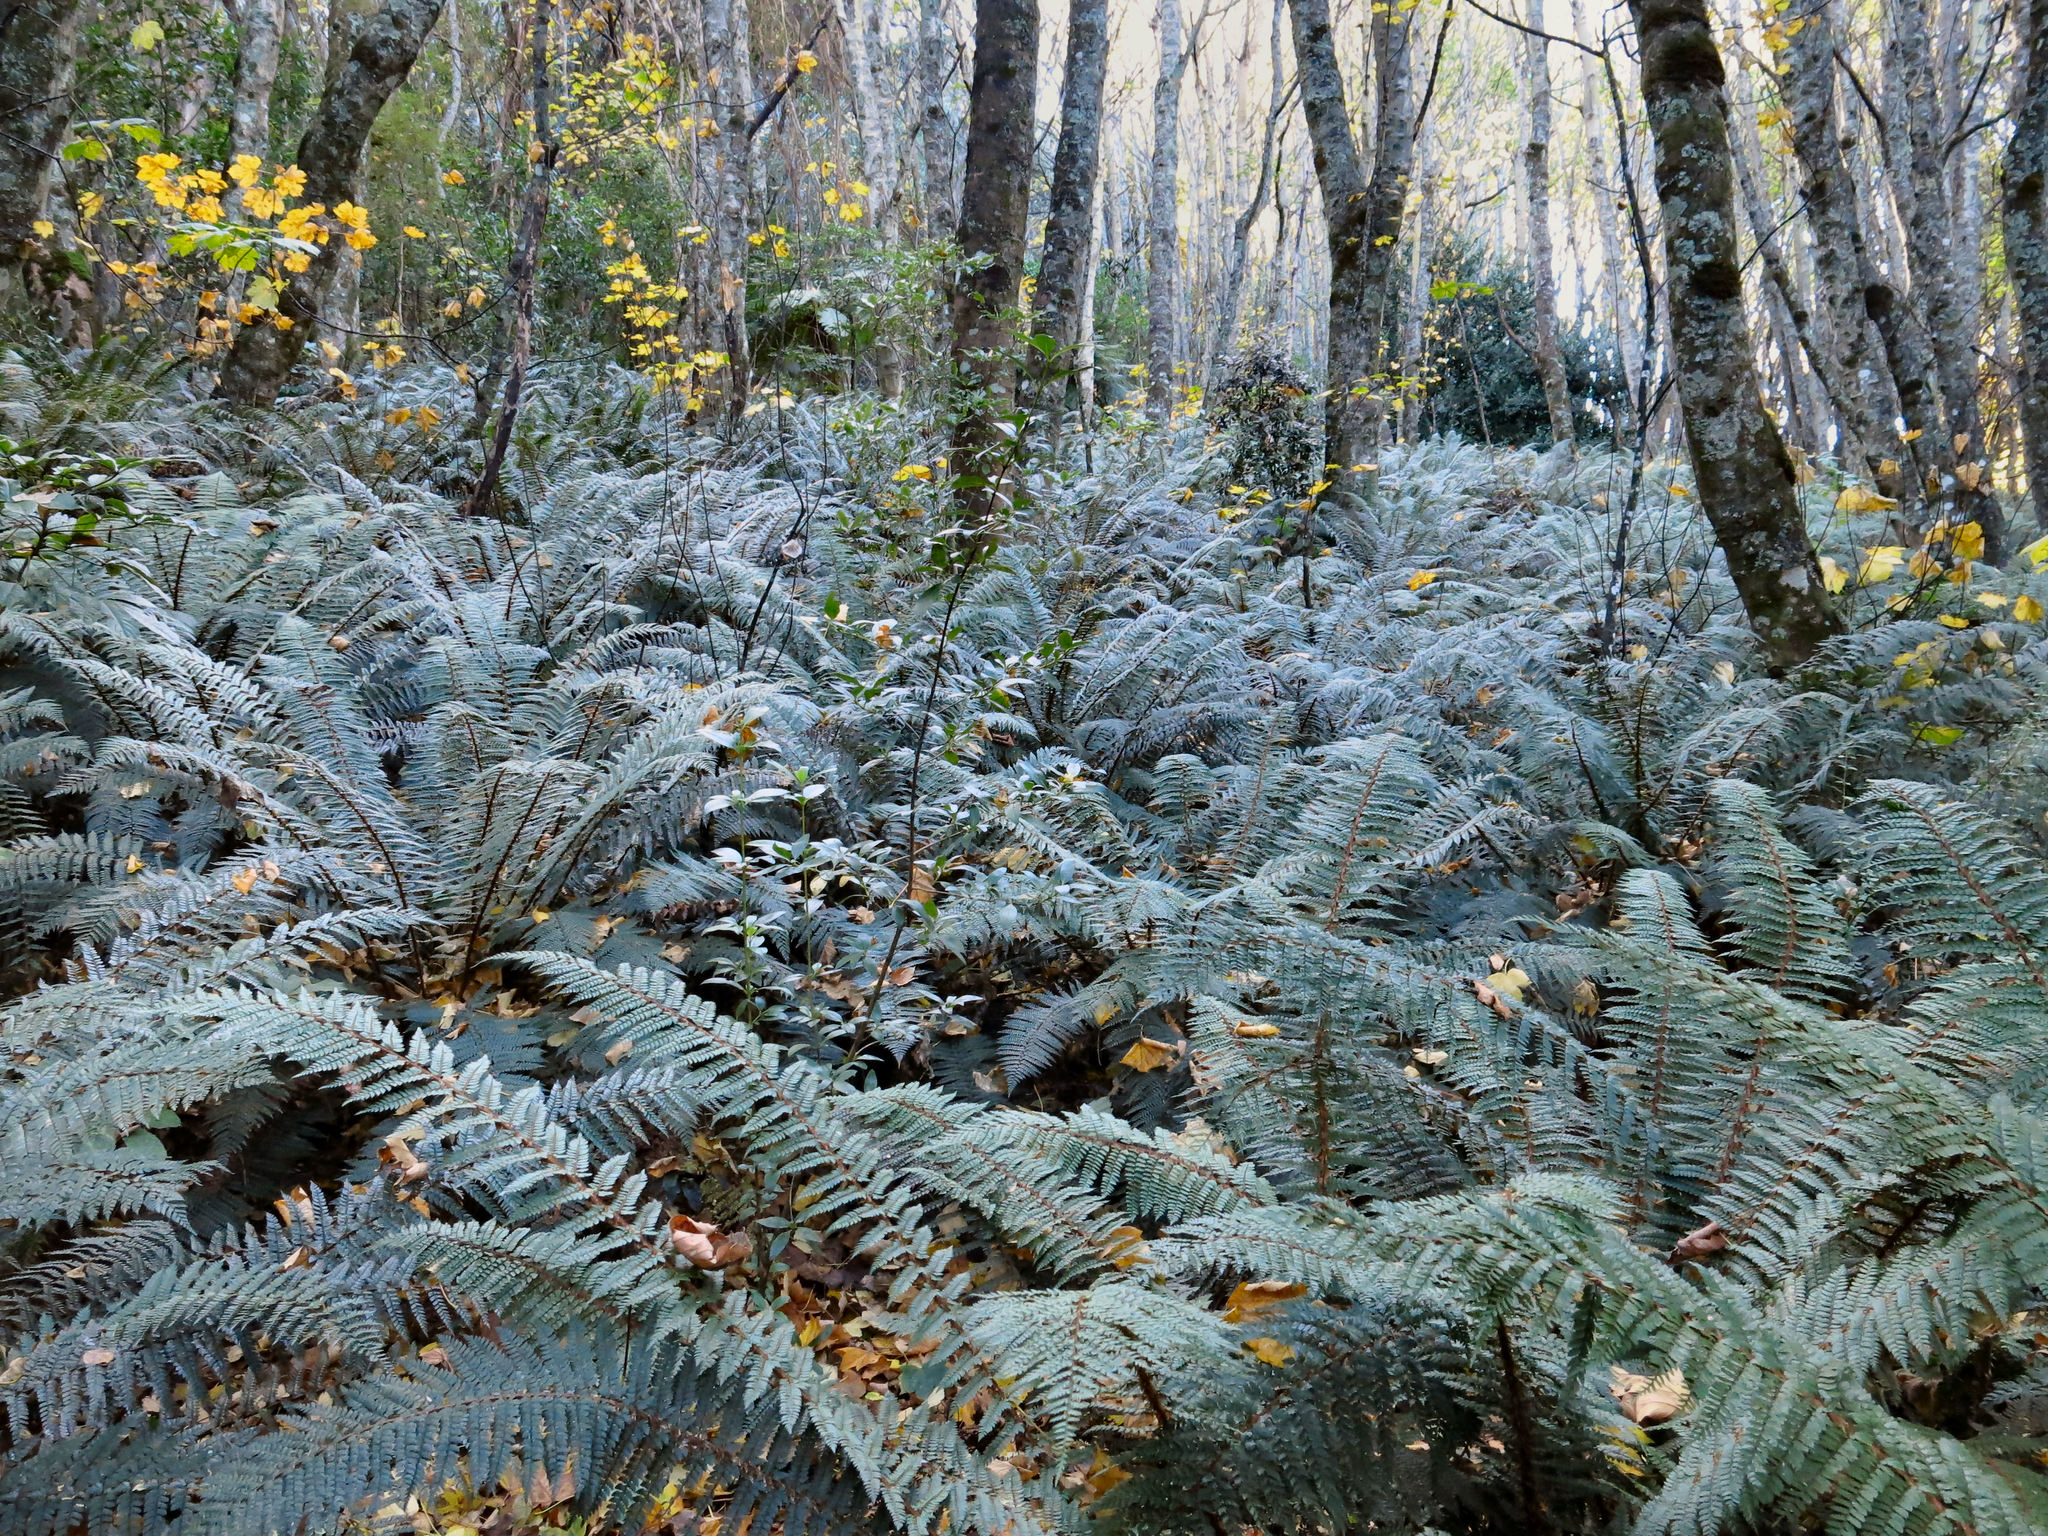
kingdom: Plantae
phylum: Tracheophyta
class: Polypodiopsida
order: Polypodiales
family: Dryopteridaceae
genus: Polystichum
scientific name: Polystichum vestitum
